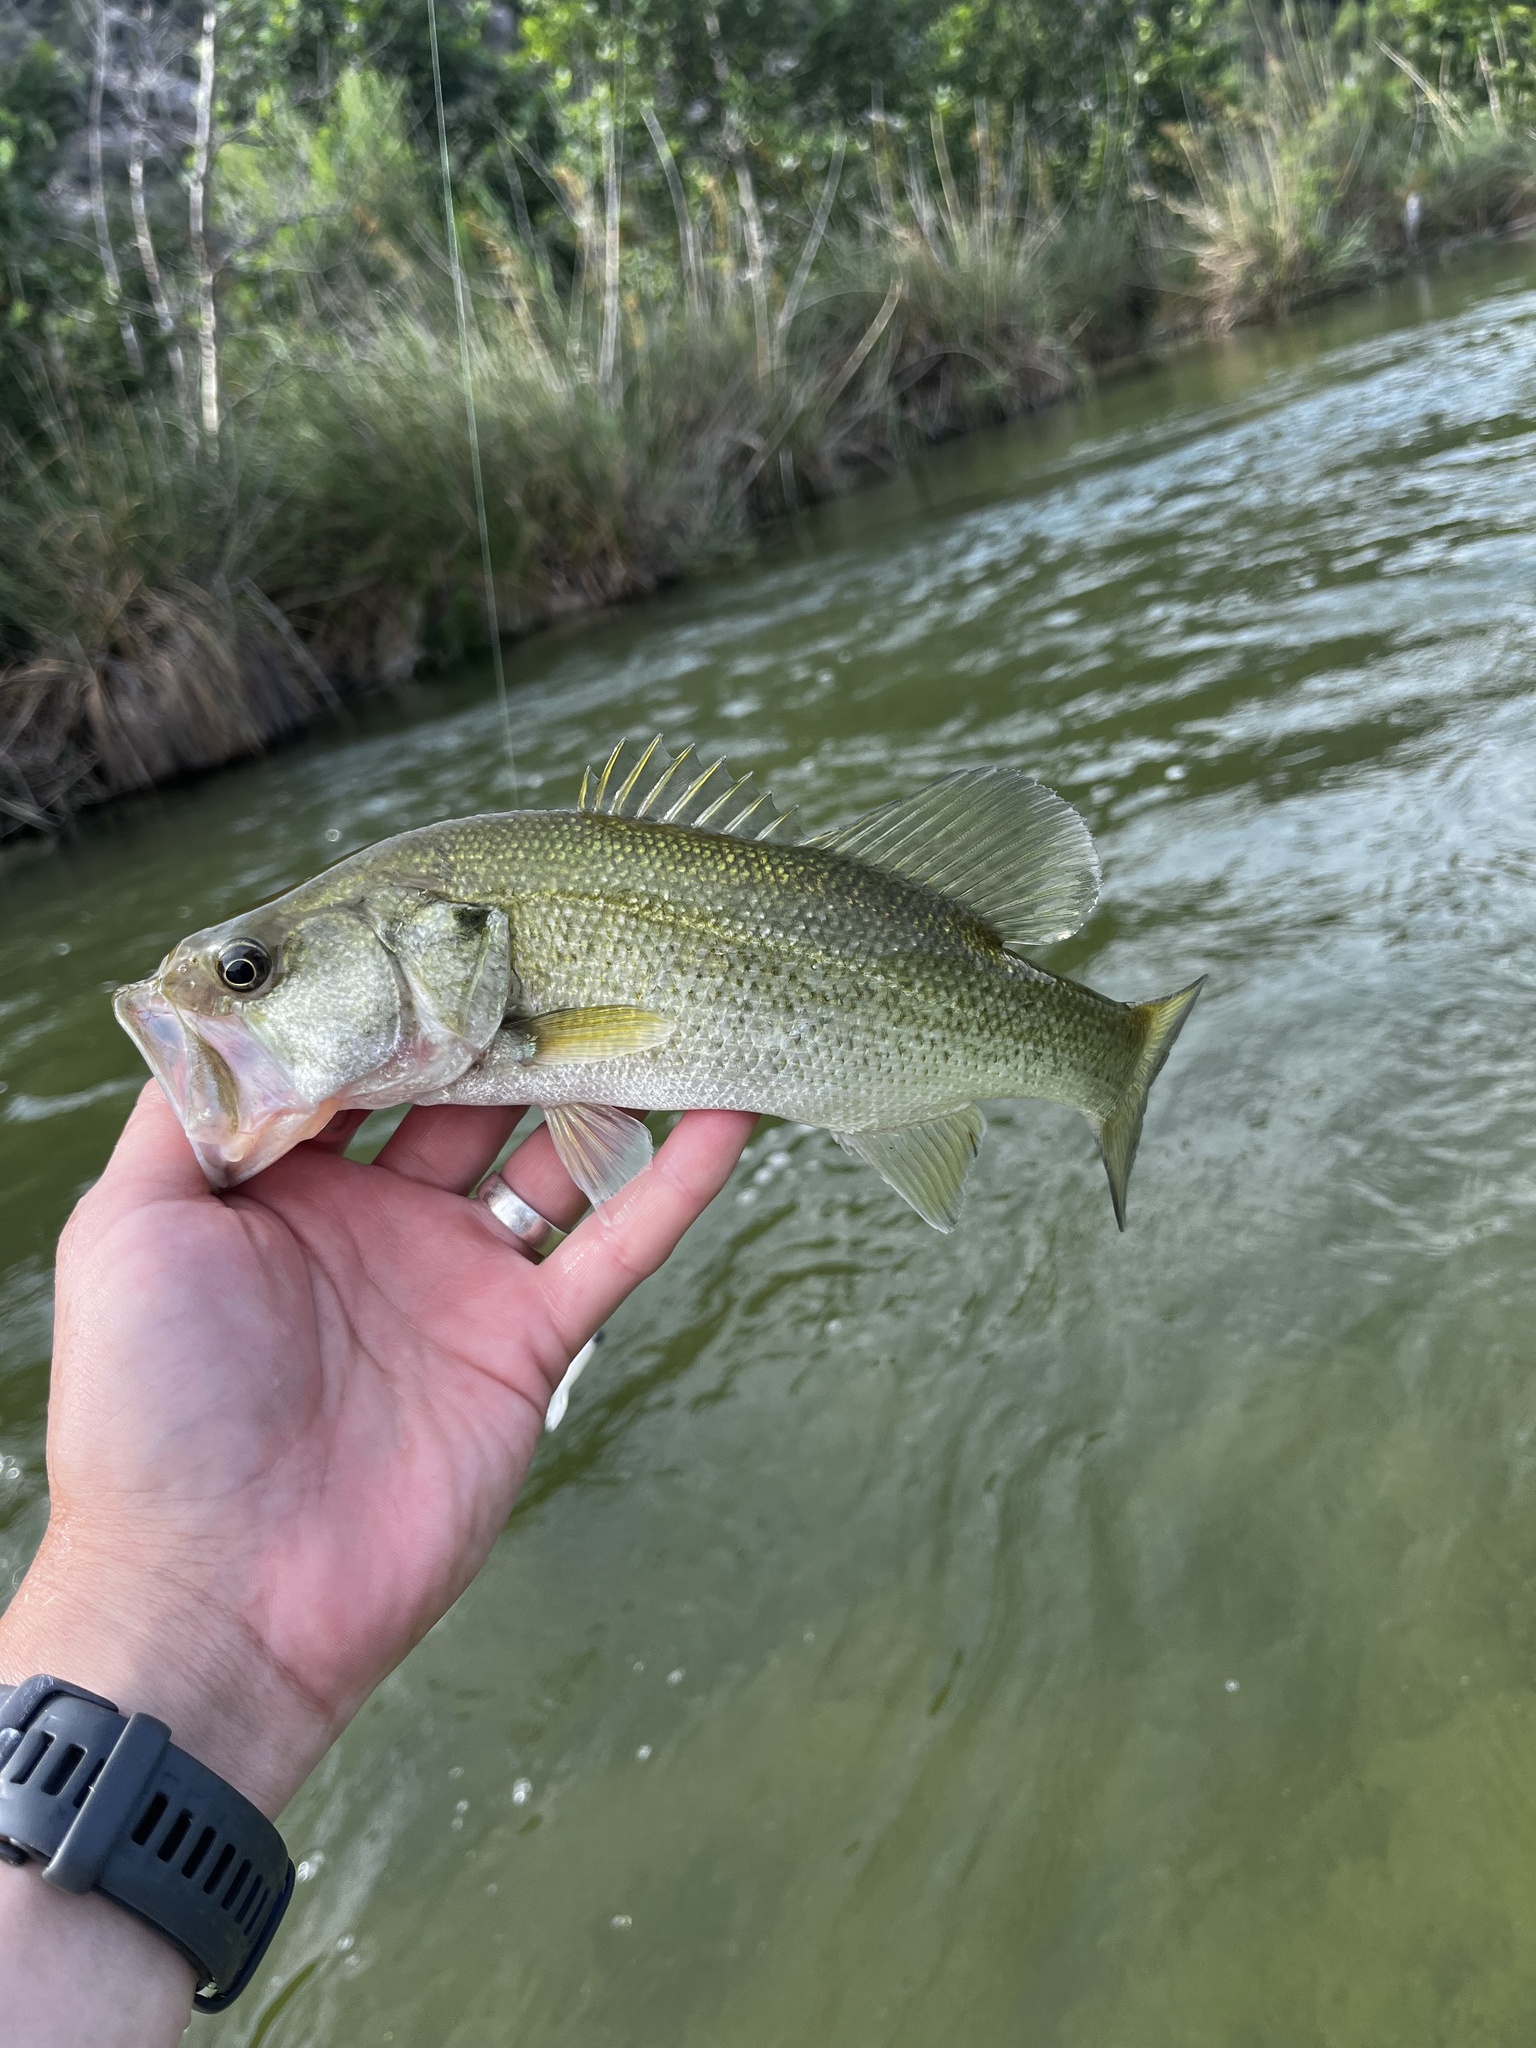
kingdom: Animalia
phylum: Chordata
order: Perciformes
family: Centrarchidae
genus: Micropterus
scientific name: Micropterus
